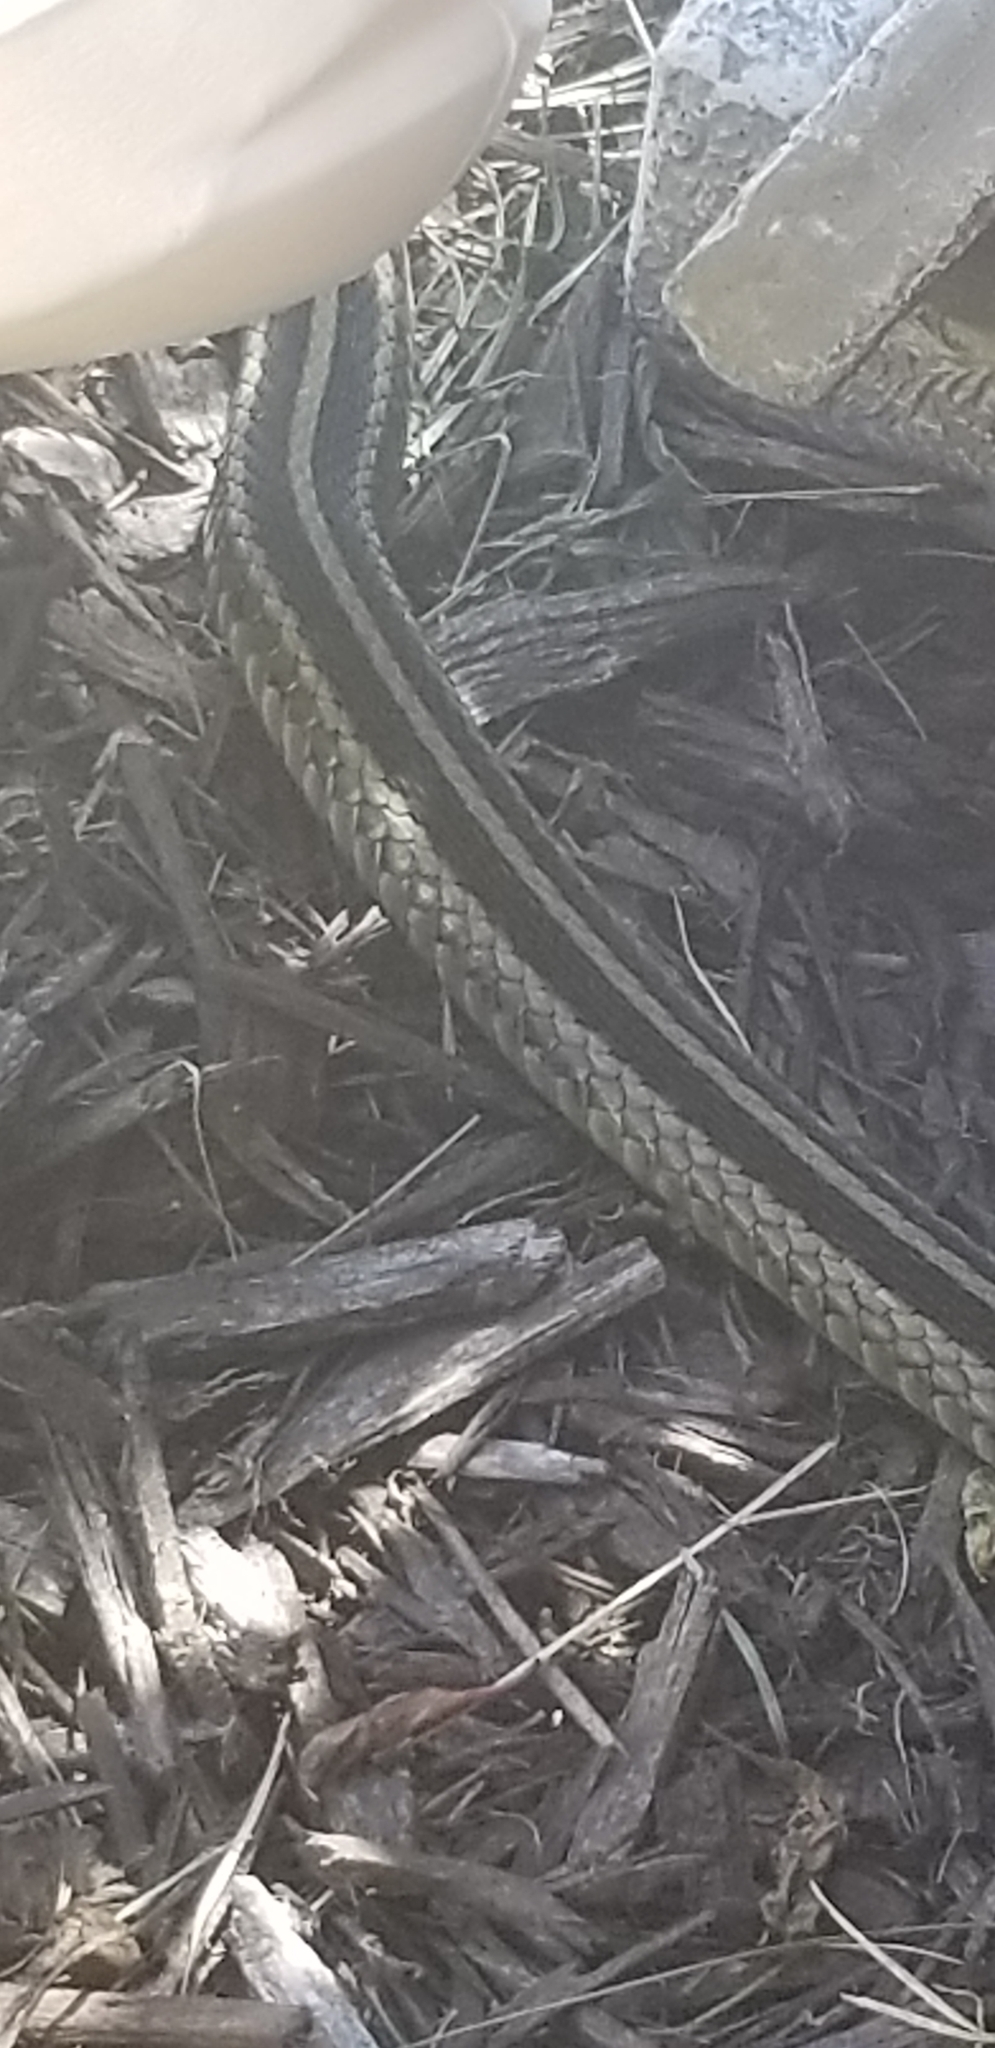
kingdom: Animalia
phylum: Chordata
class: Squamata
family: Colubridae
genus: Thamnophis
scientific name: Thamnophis sirtalis
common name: Common garter snake
